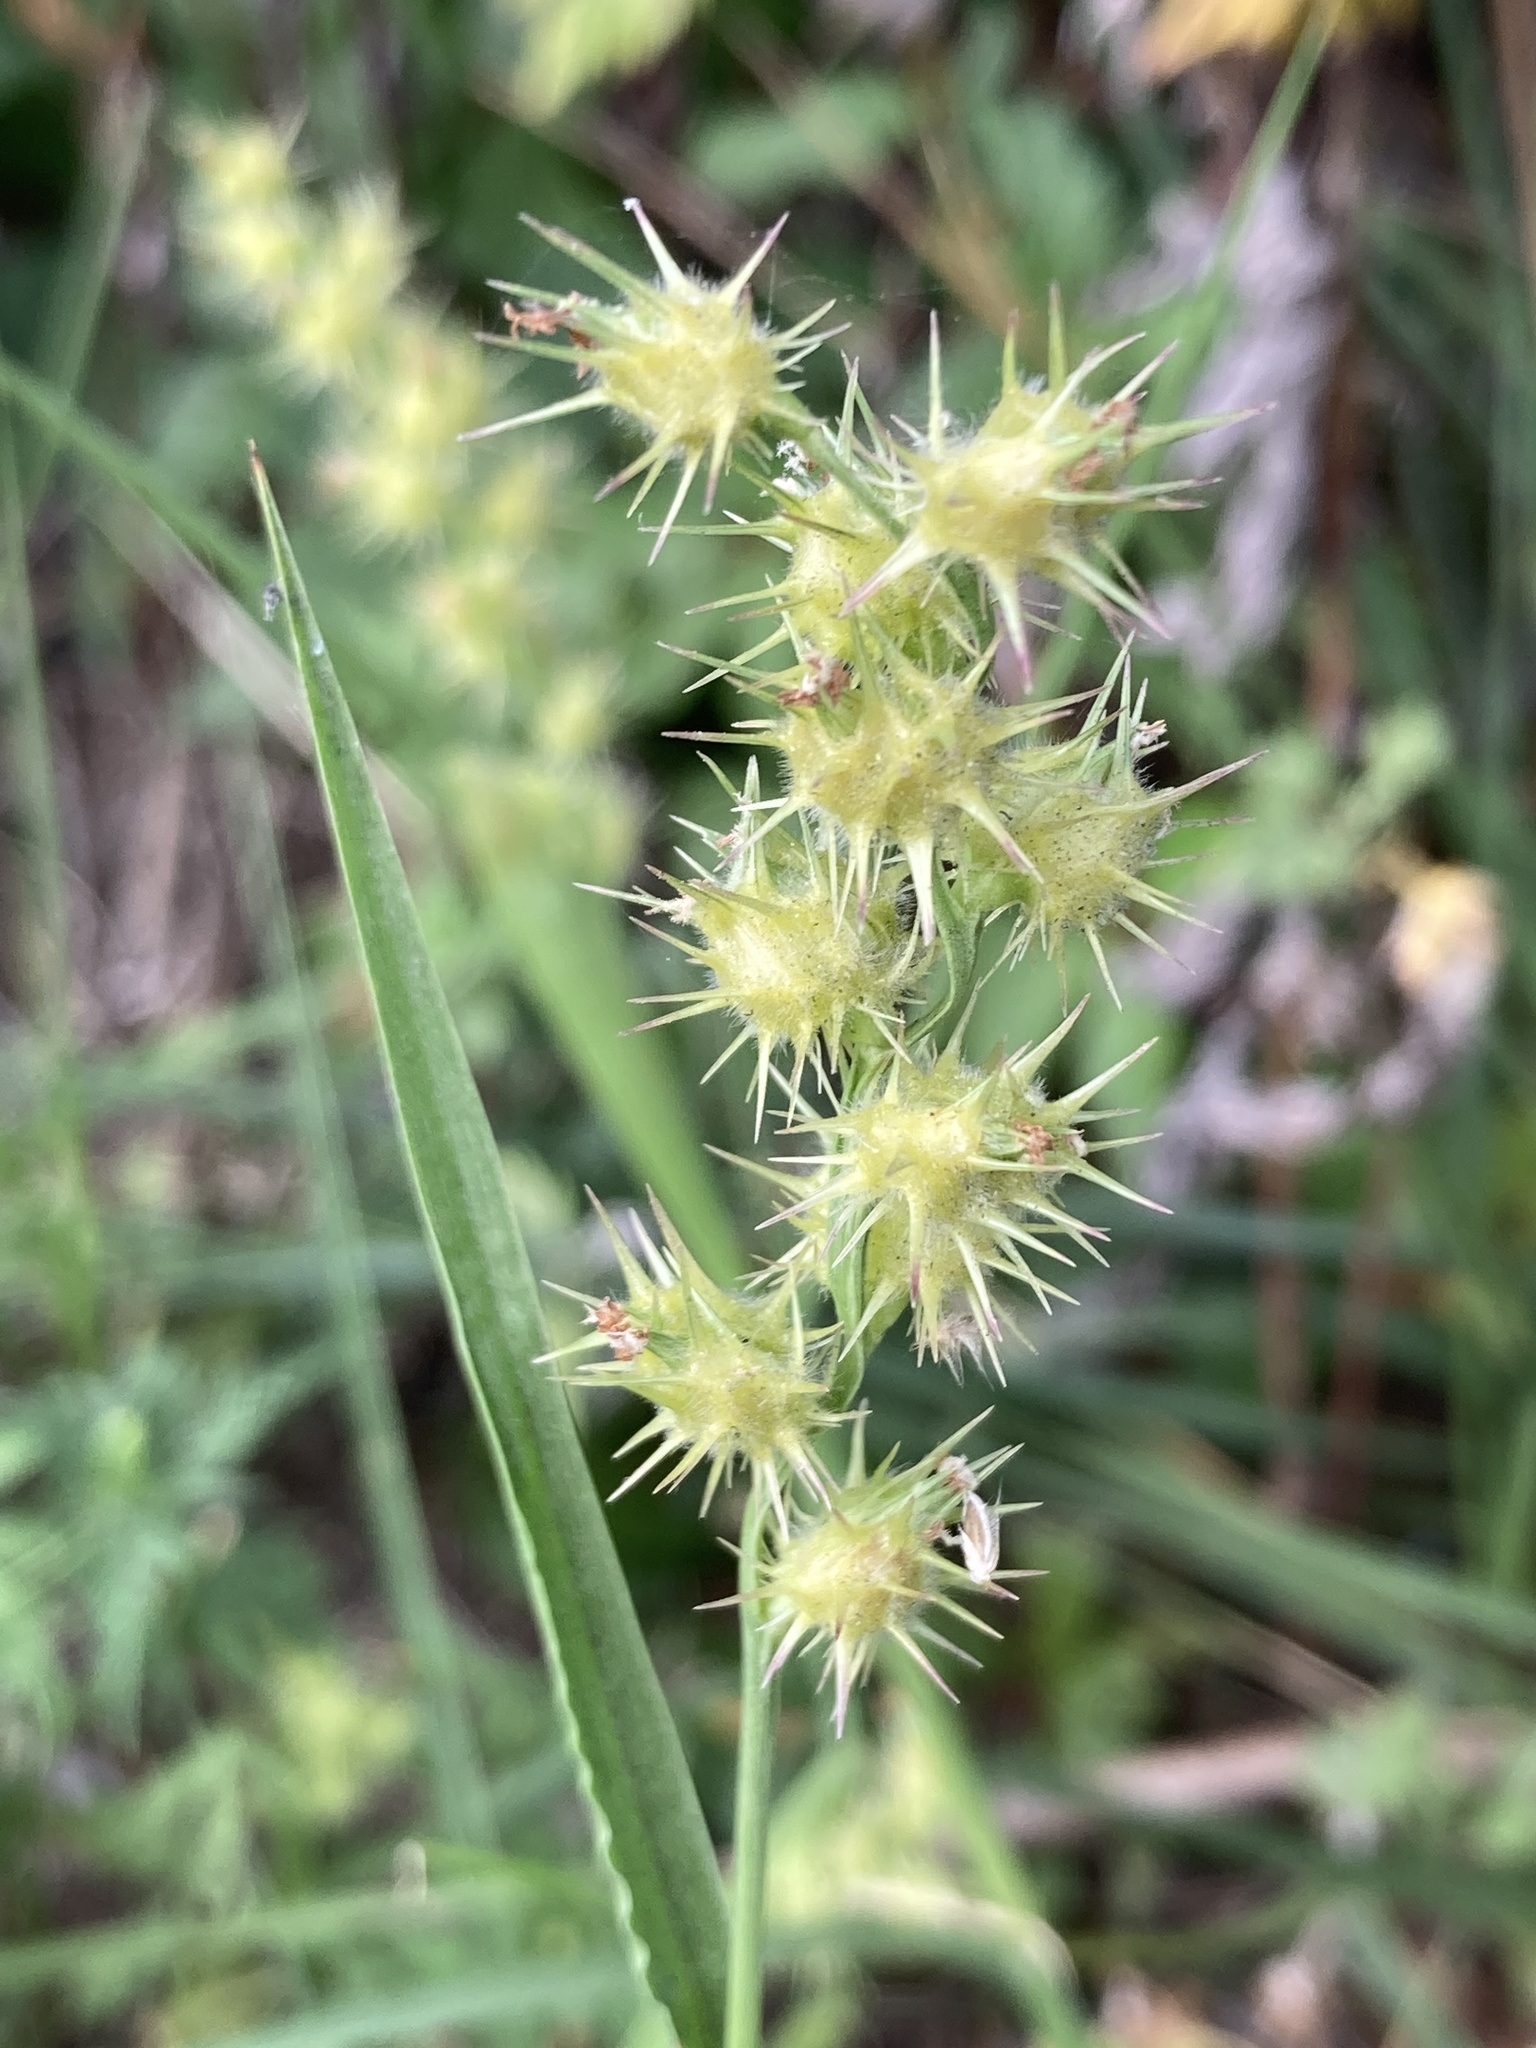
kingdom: Plantae
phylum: Tracheophyta
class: Liliopsida
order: Poales
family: Poaceae
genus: Cenchrus
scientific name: Cenchrus tribuloides
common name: Dune sandbur
